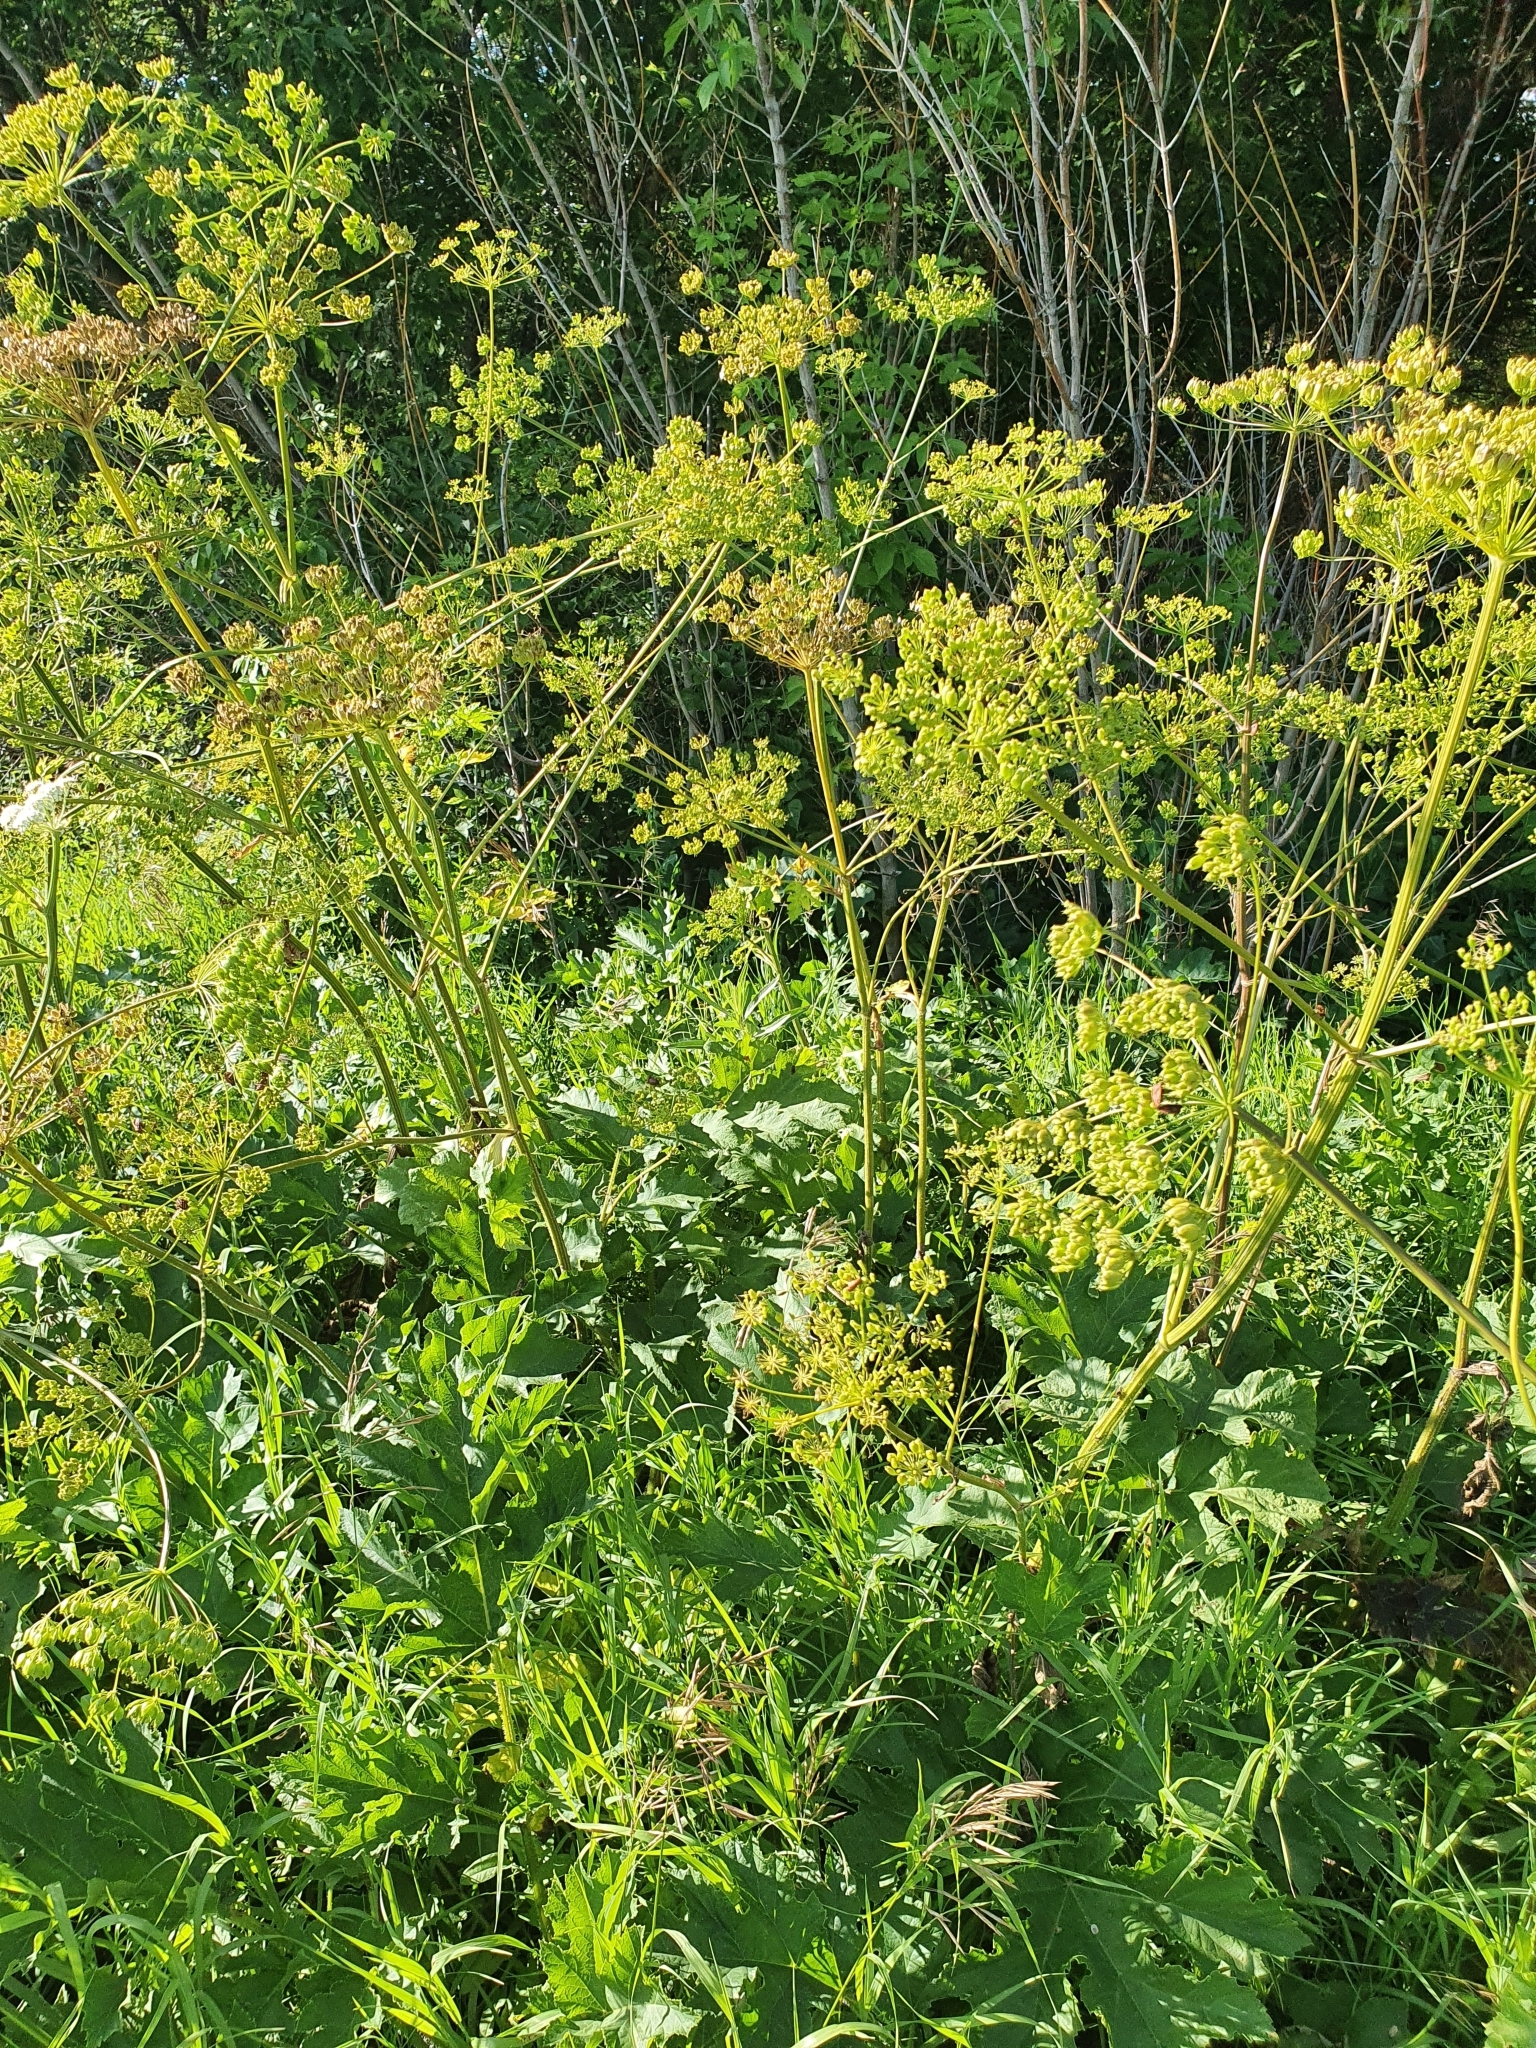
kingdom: Plantae
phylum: Tracheophyta
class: Magnoliopsida
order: Apiales
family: Apiaceae
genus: Heracleum
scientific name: Heracleum sphondylium
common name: Hogweed
